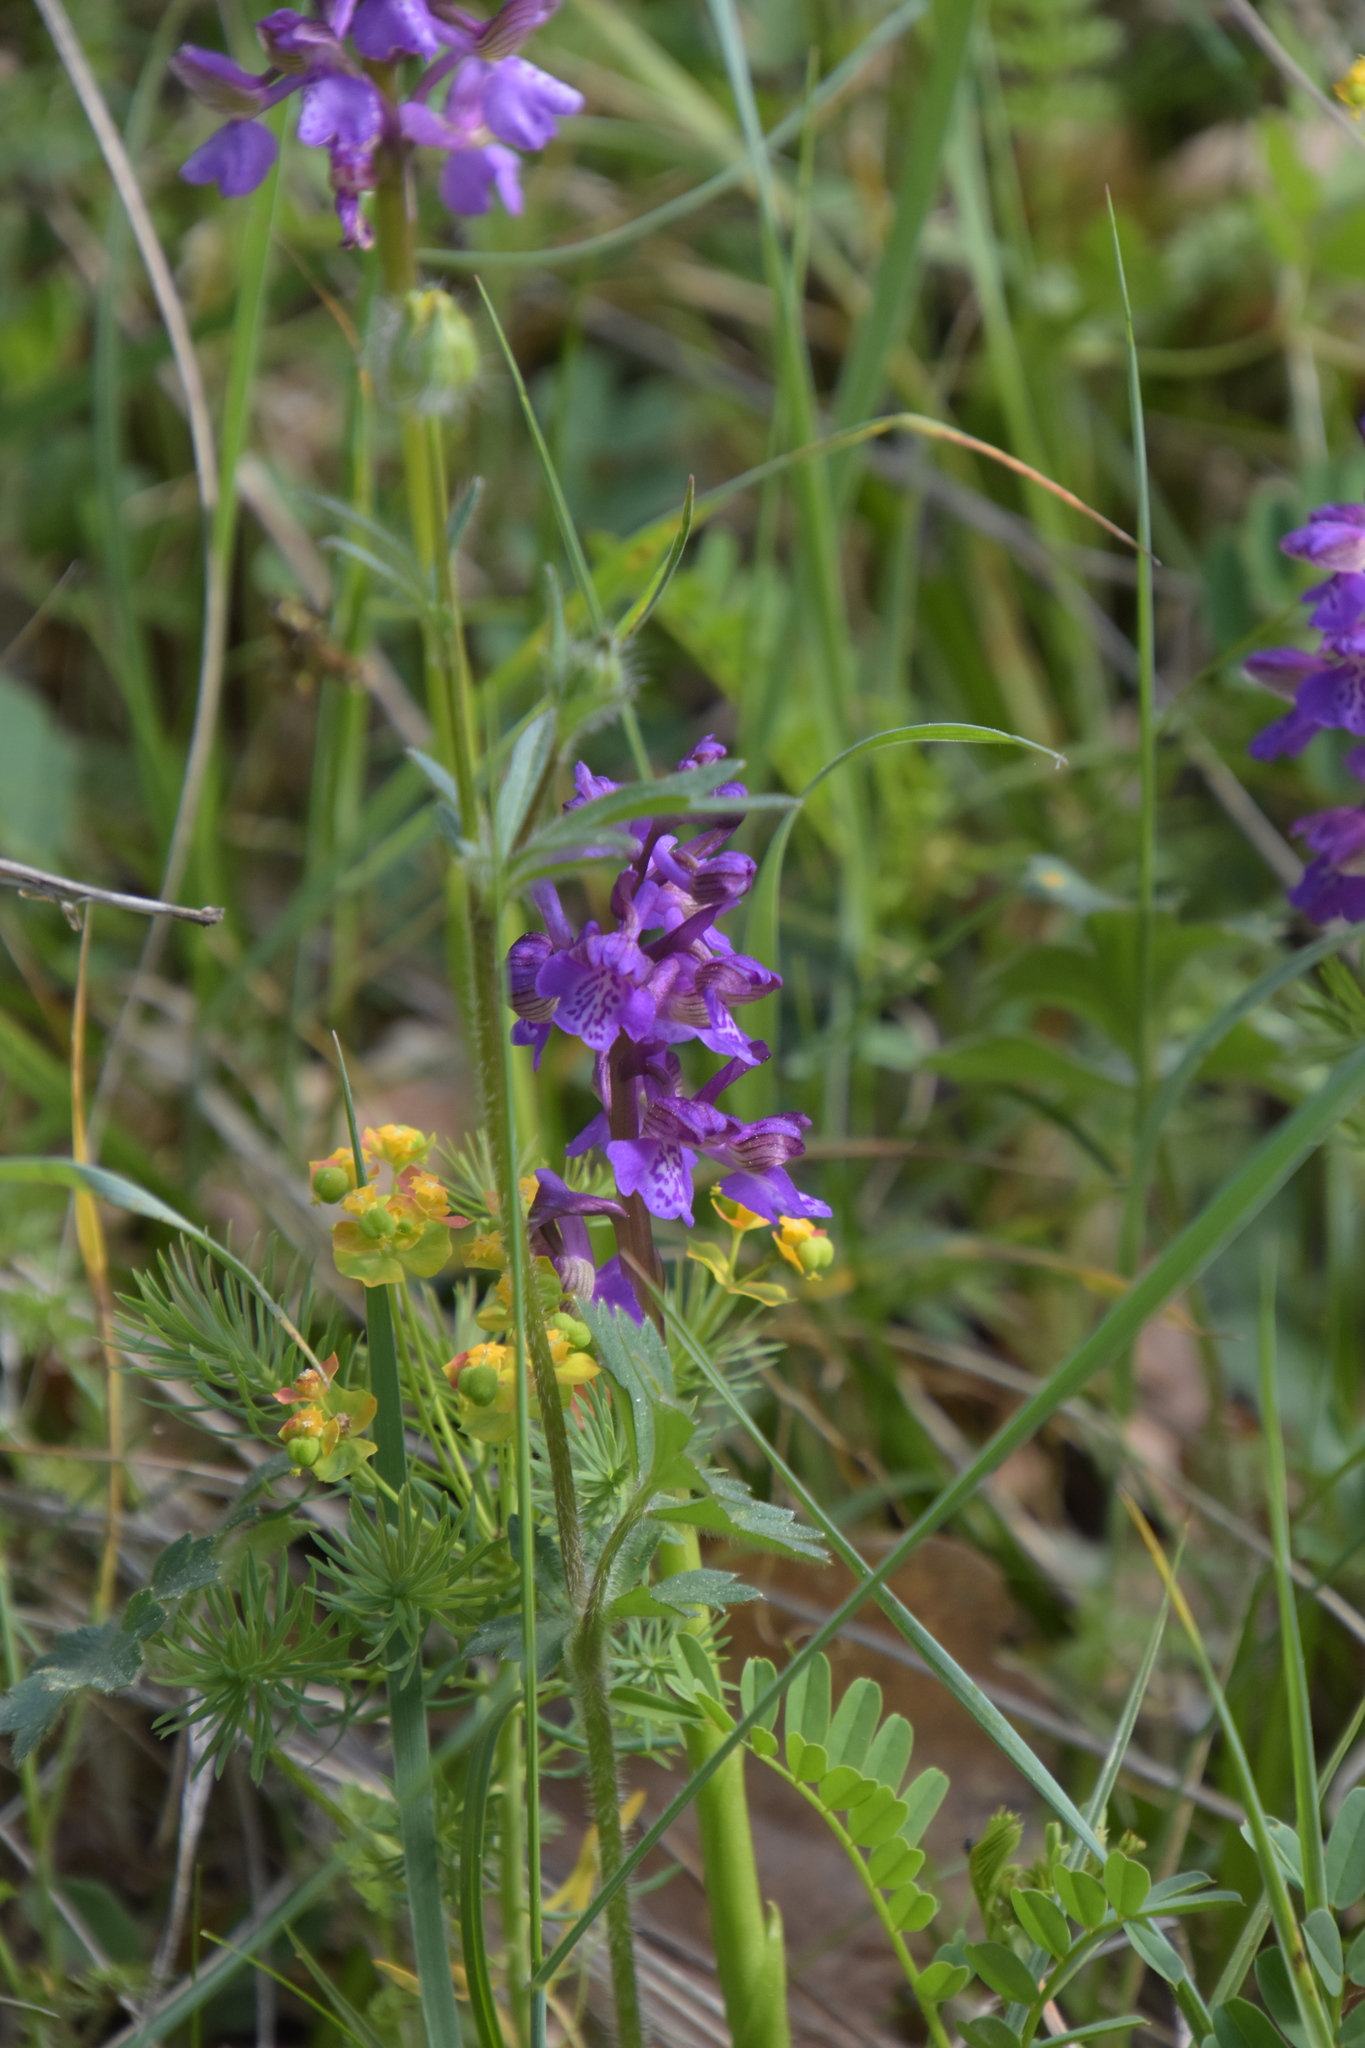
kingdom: Plantae
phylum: Tracheophyta
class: Liliopsida
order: Asparagales
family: Orchidaceae
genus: Anacamptis
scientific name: Anacamptis morio
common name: Green-winged orchid
